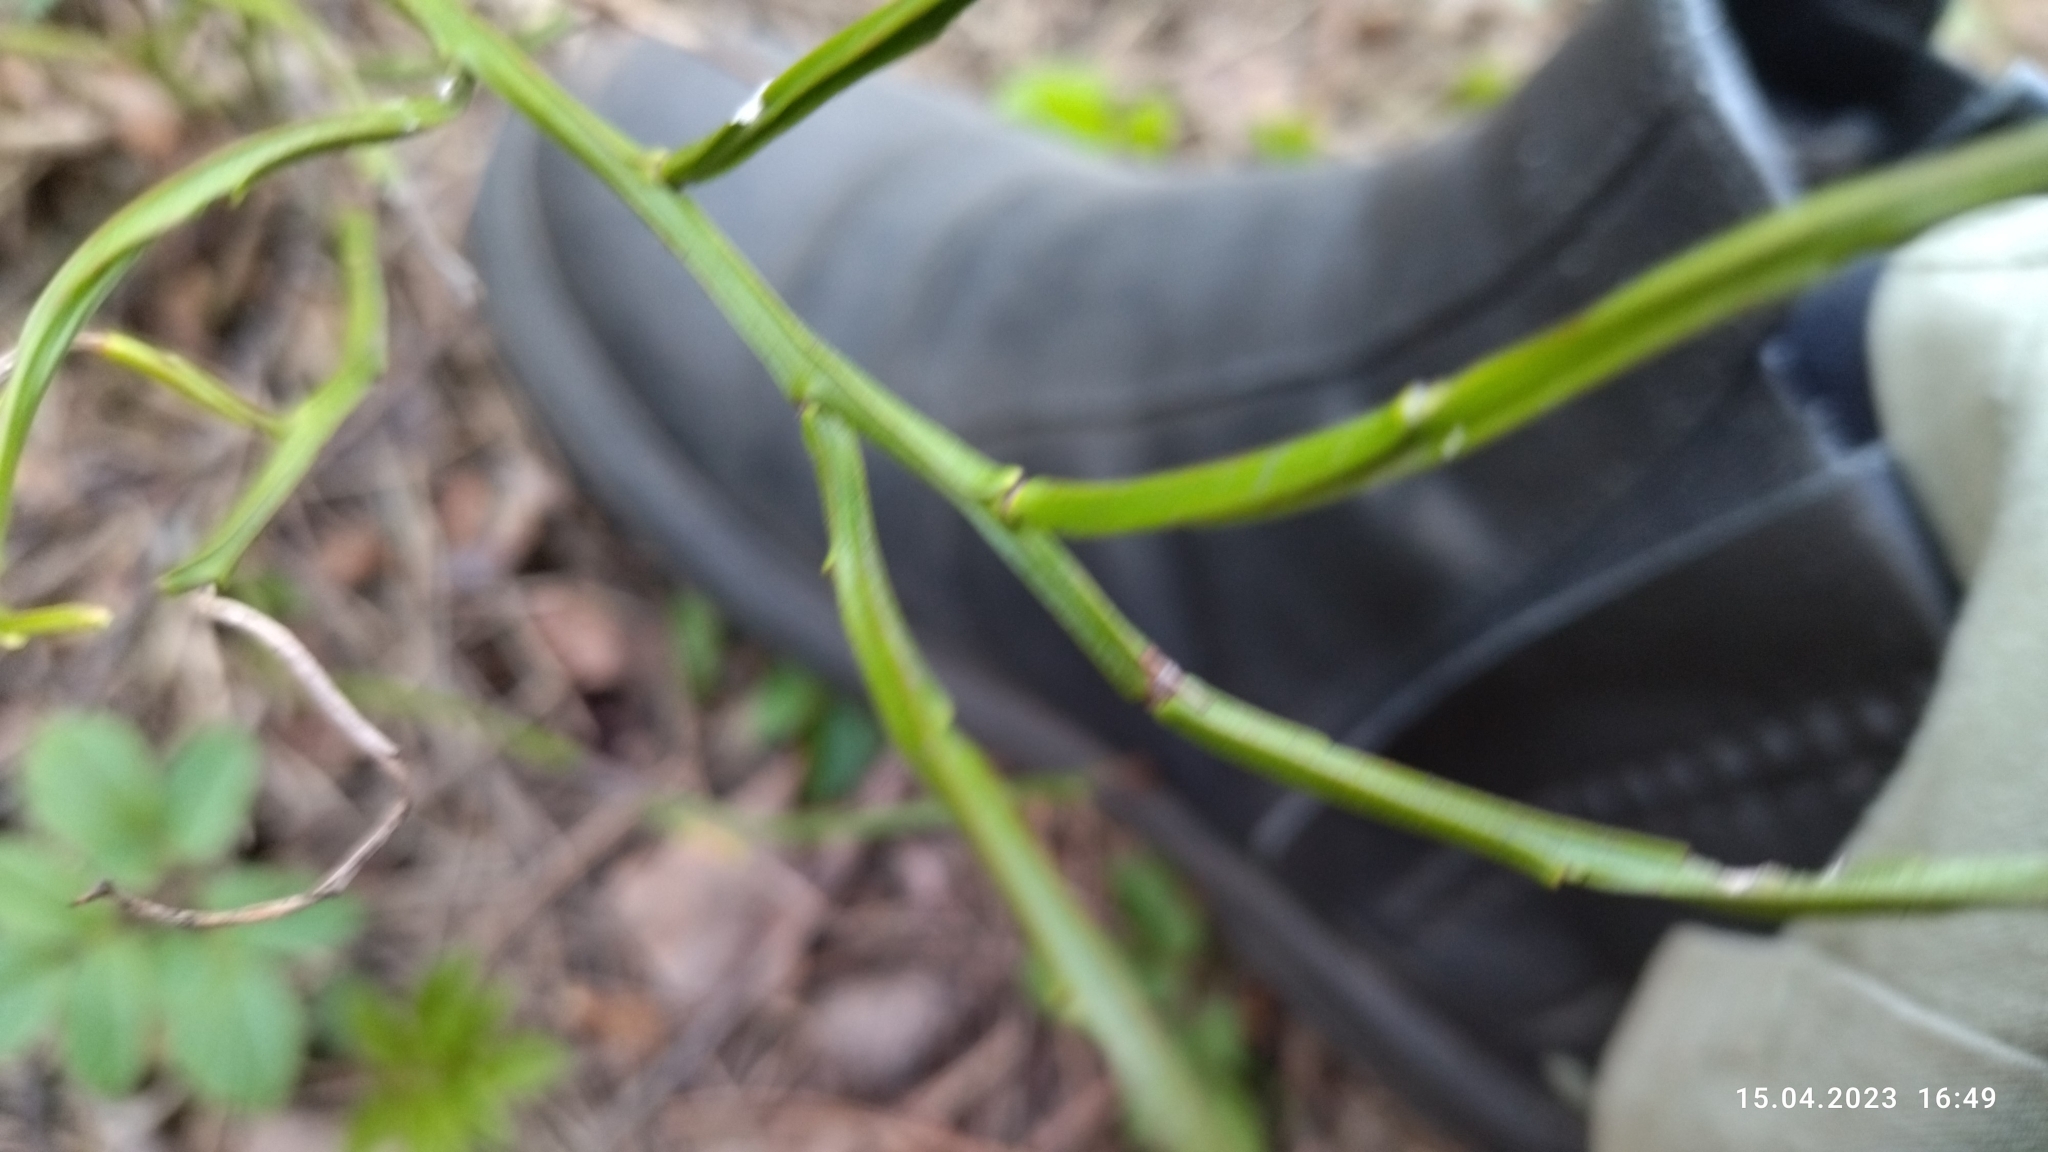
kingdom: Plantae
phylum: Tracheophyta
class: Magnoliopsida
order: Ericales
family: Ericaceae
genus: Vaccinium
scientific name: Vaccinium myrtillus
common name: Bilberry
